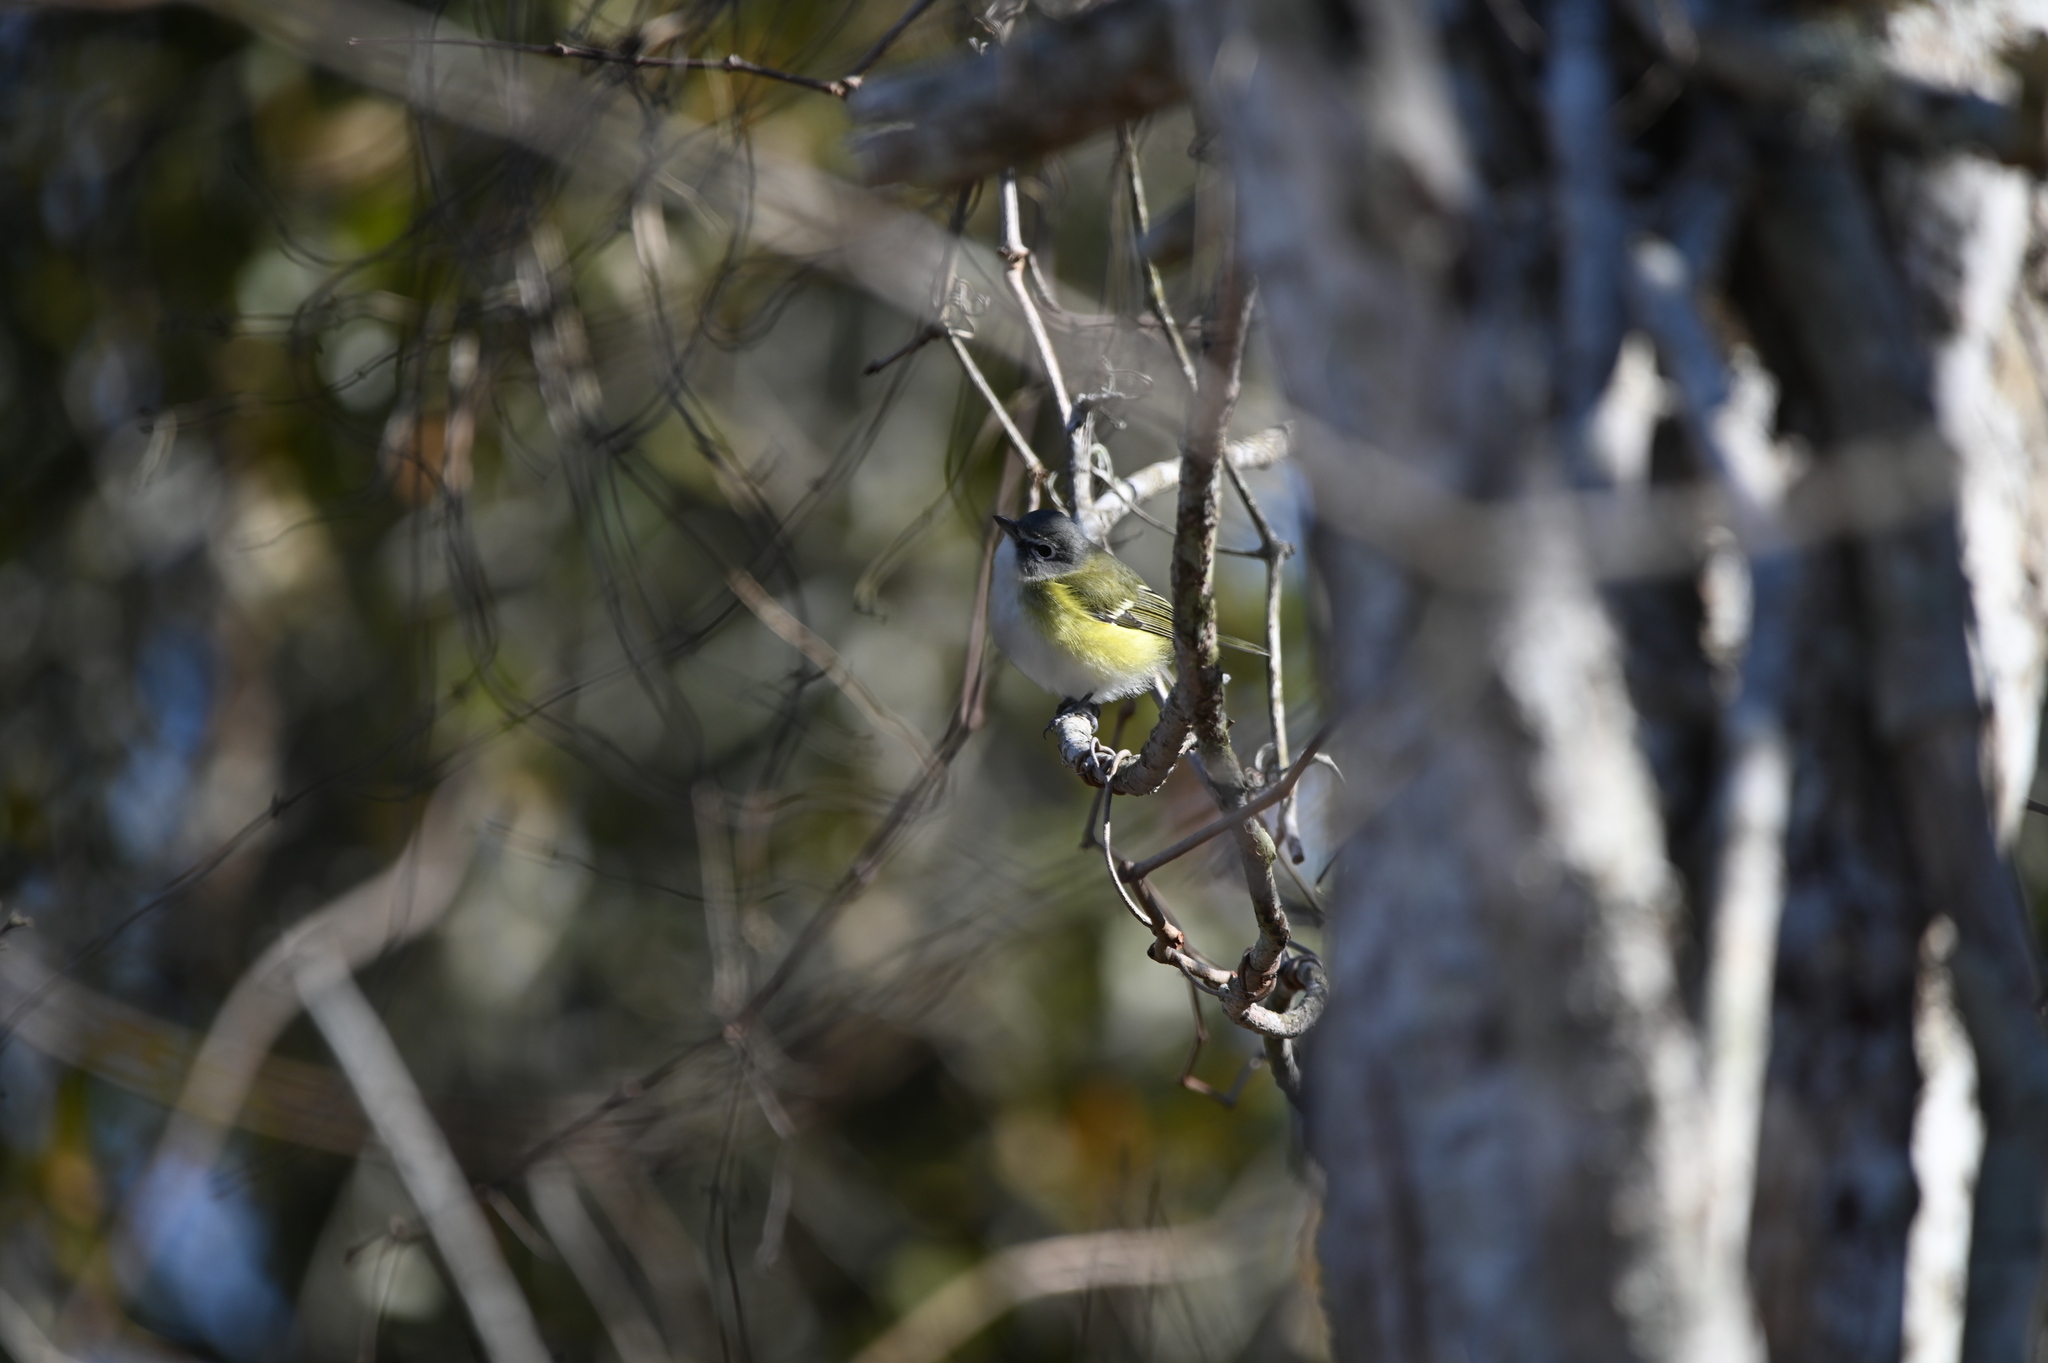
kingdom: Animalia
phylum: Chordata
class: Aves
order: Passeriformes
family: Vireonidae
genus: Vireo
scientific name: Vireo solitarius
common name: Blue-headed vireo
